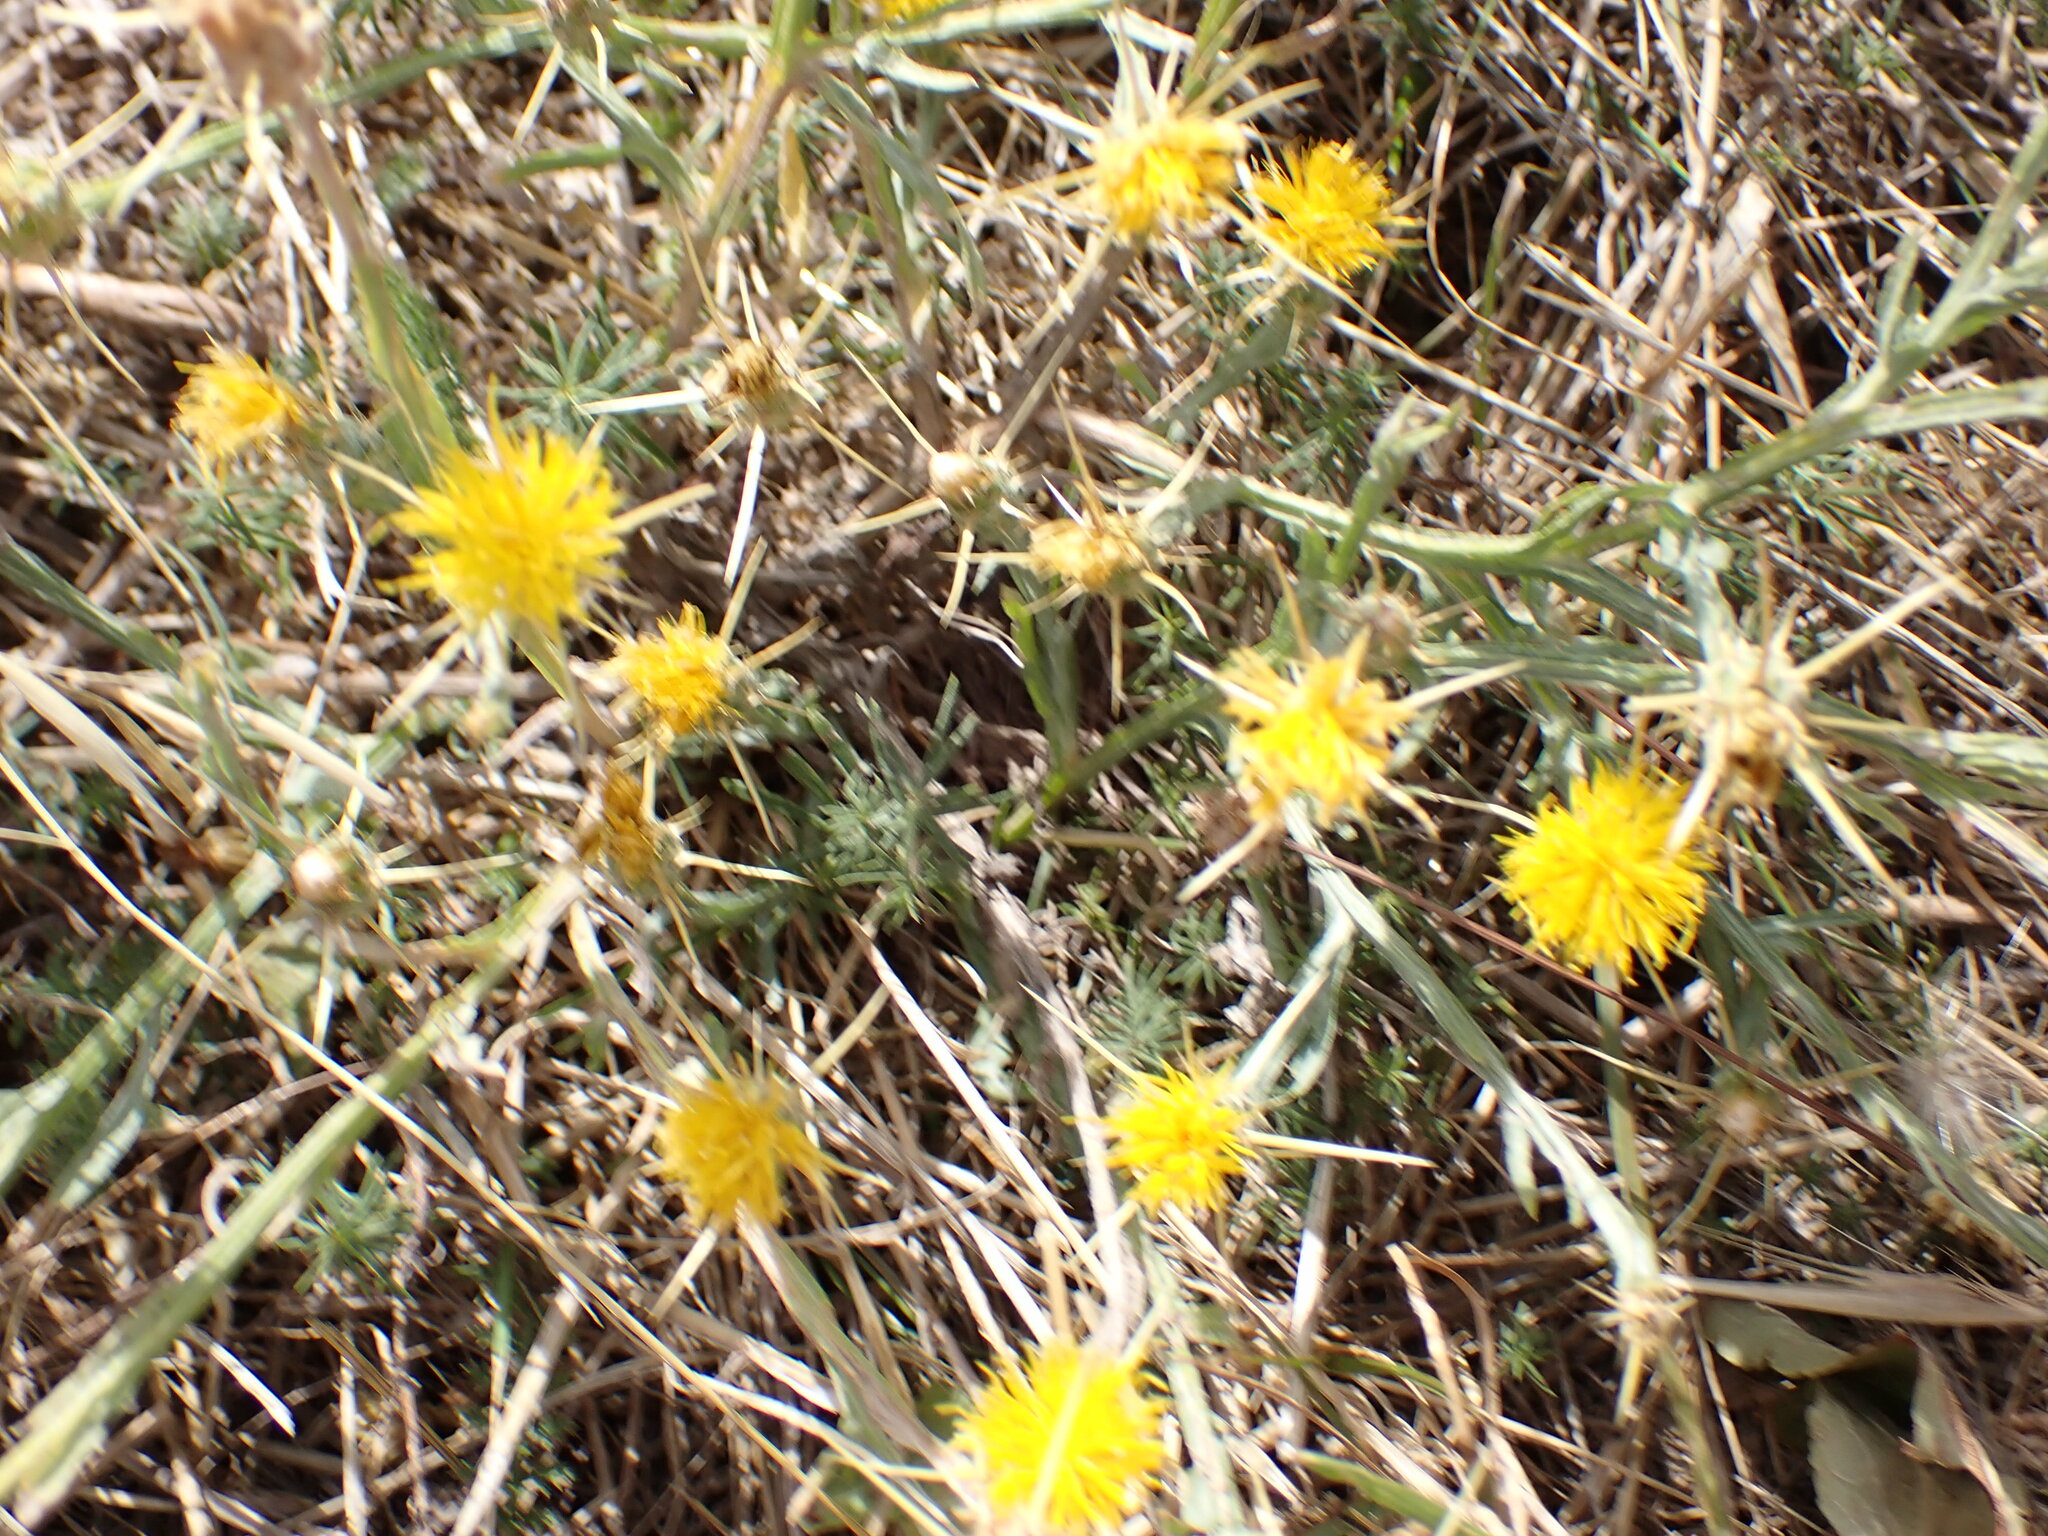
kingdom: Plantae
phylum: Tracheophyta
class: Magnoliopsida
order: Asterales
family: Asteraceae
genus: Centaurea
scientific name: Centaurea solstitialis
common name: Yellow star-thistle
